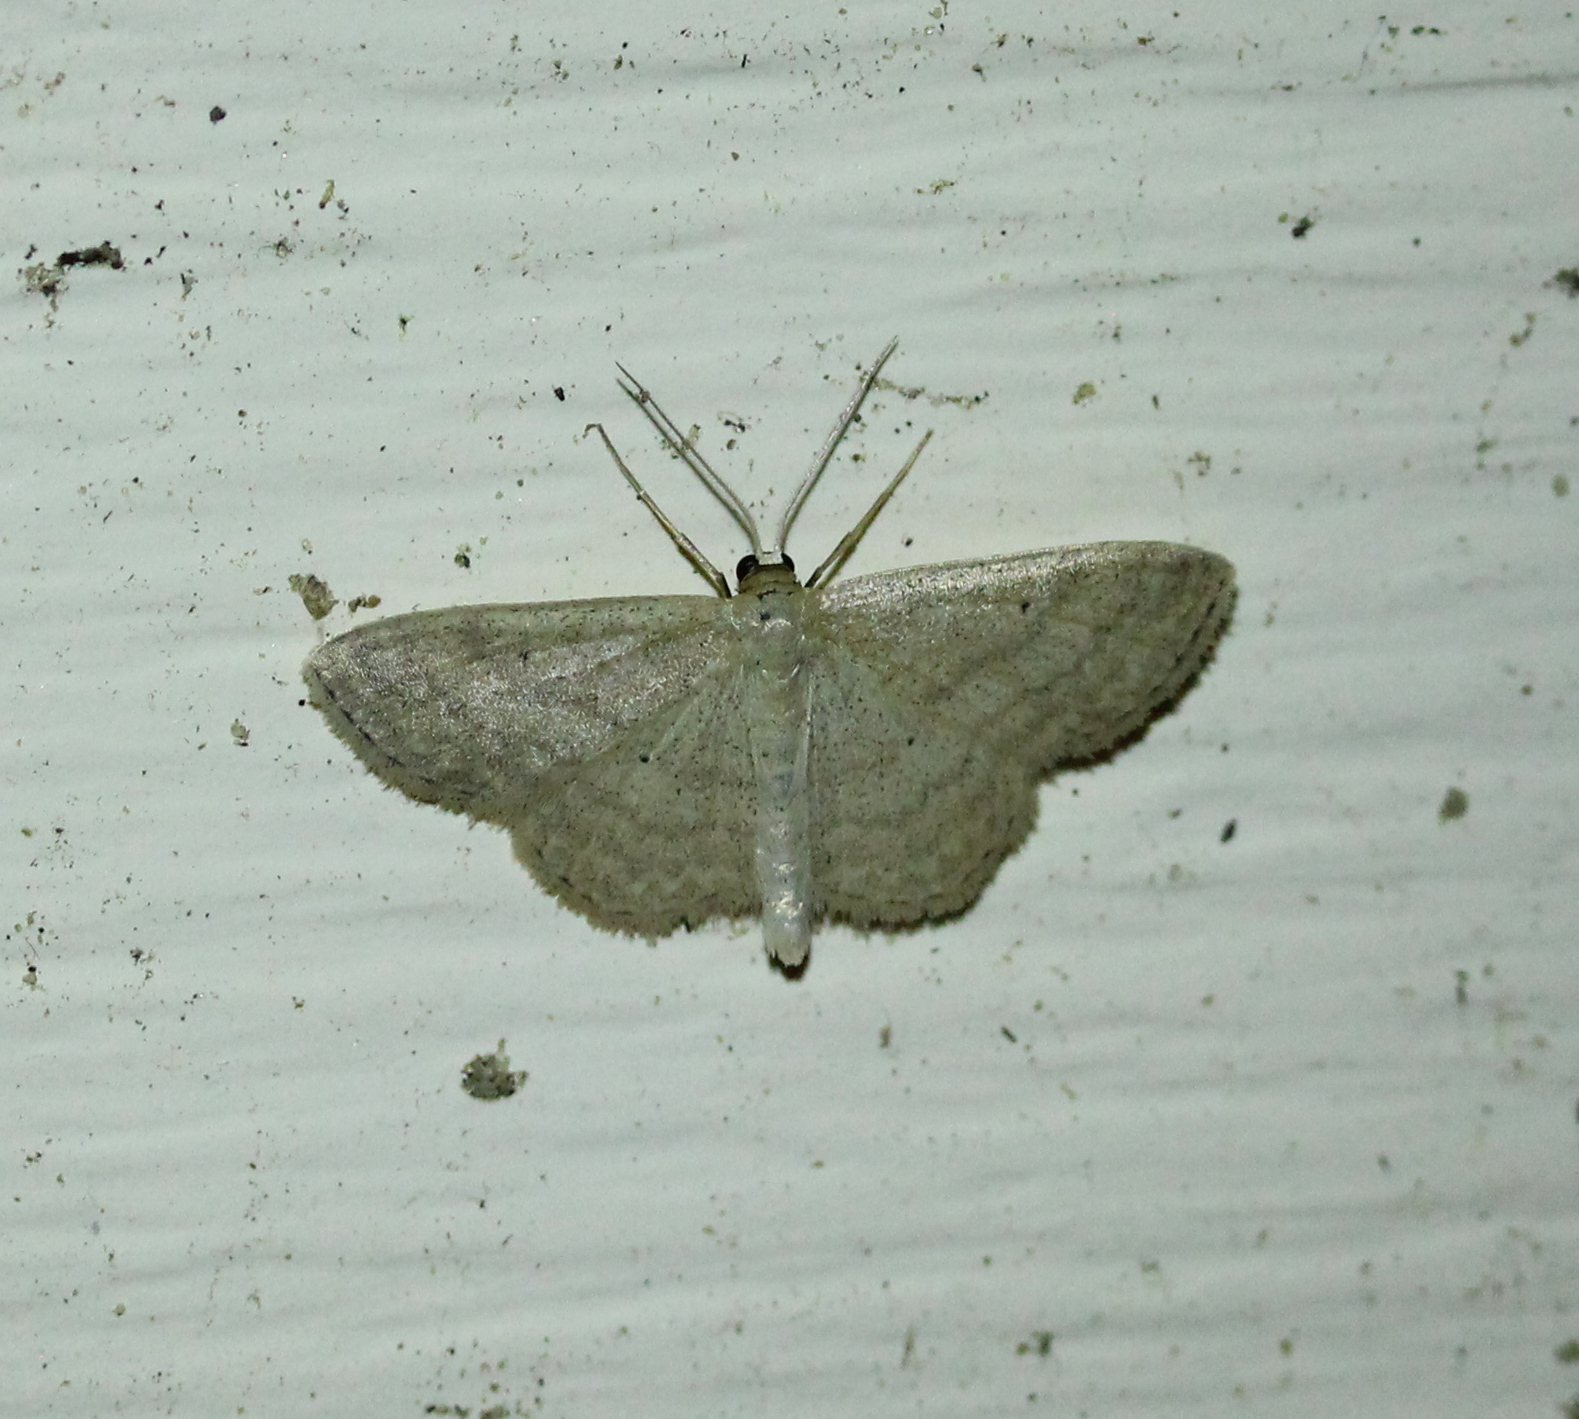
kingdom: Animalia
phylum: Arthropoda
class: Insecta
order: Lepidoptera
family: Geometridae
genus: Scopula
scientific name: Scopula inductata
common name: Soft-lined wave
